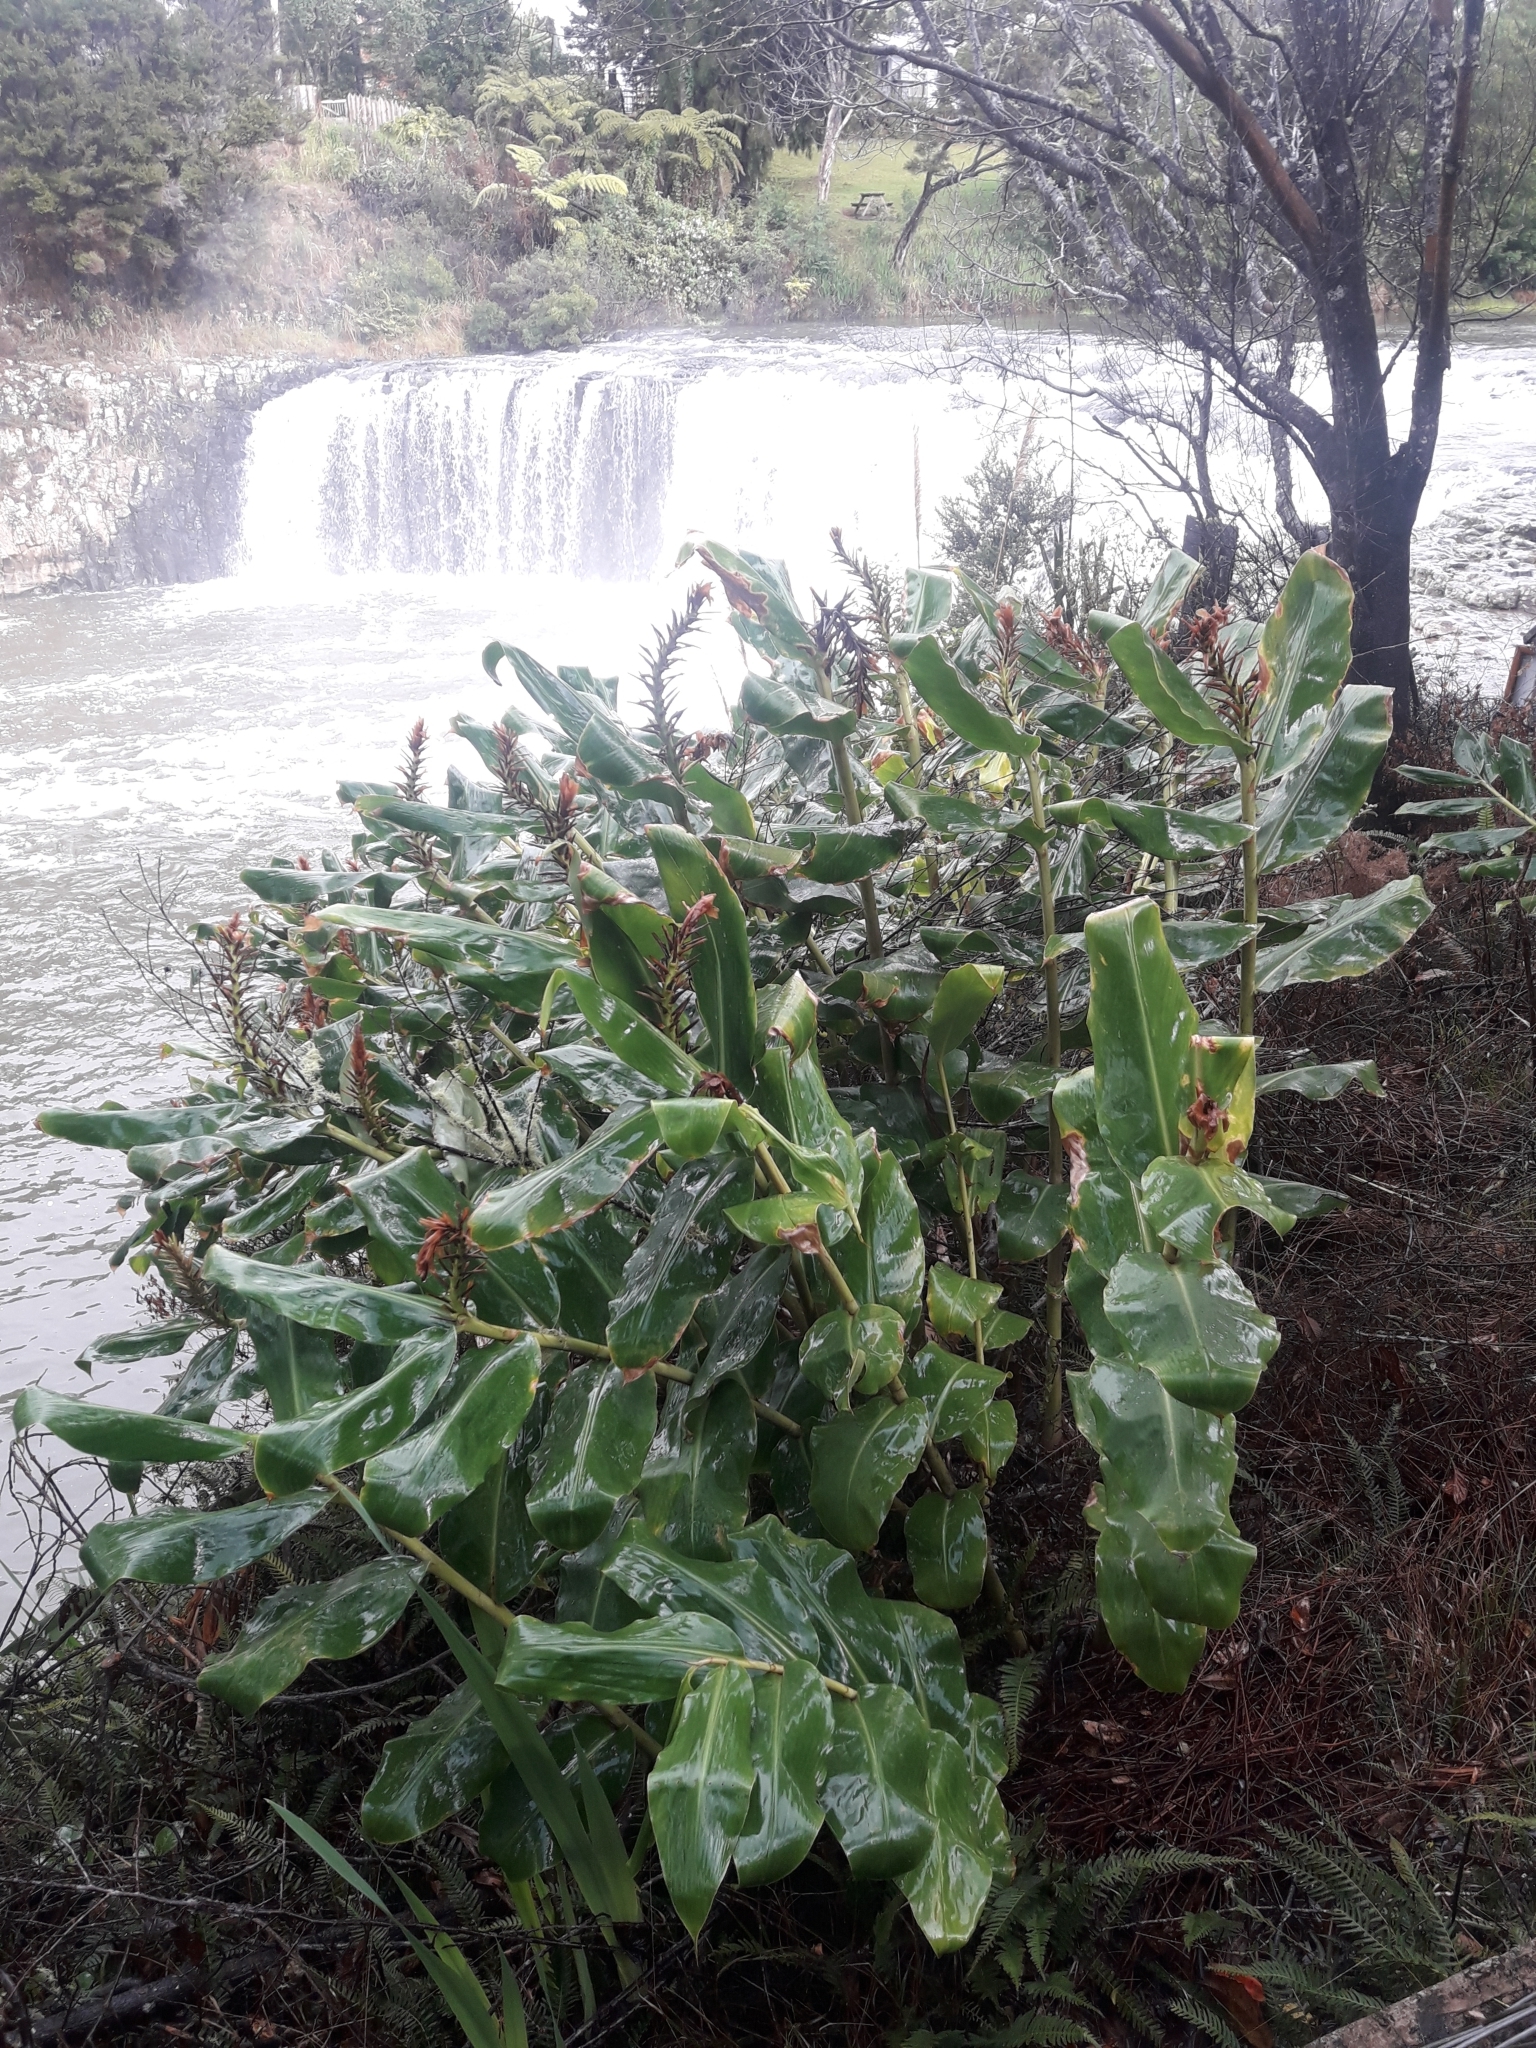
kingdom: Plantae
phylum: Tracheophyta
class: Liliopsida
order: Zingiberales
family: Zingiberaceae
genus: Hedychium
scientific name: Hedychium gardnerianum
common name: Himalayan ginger
